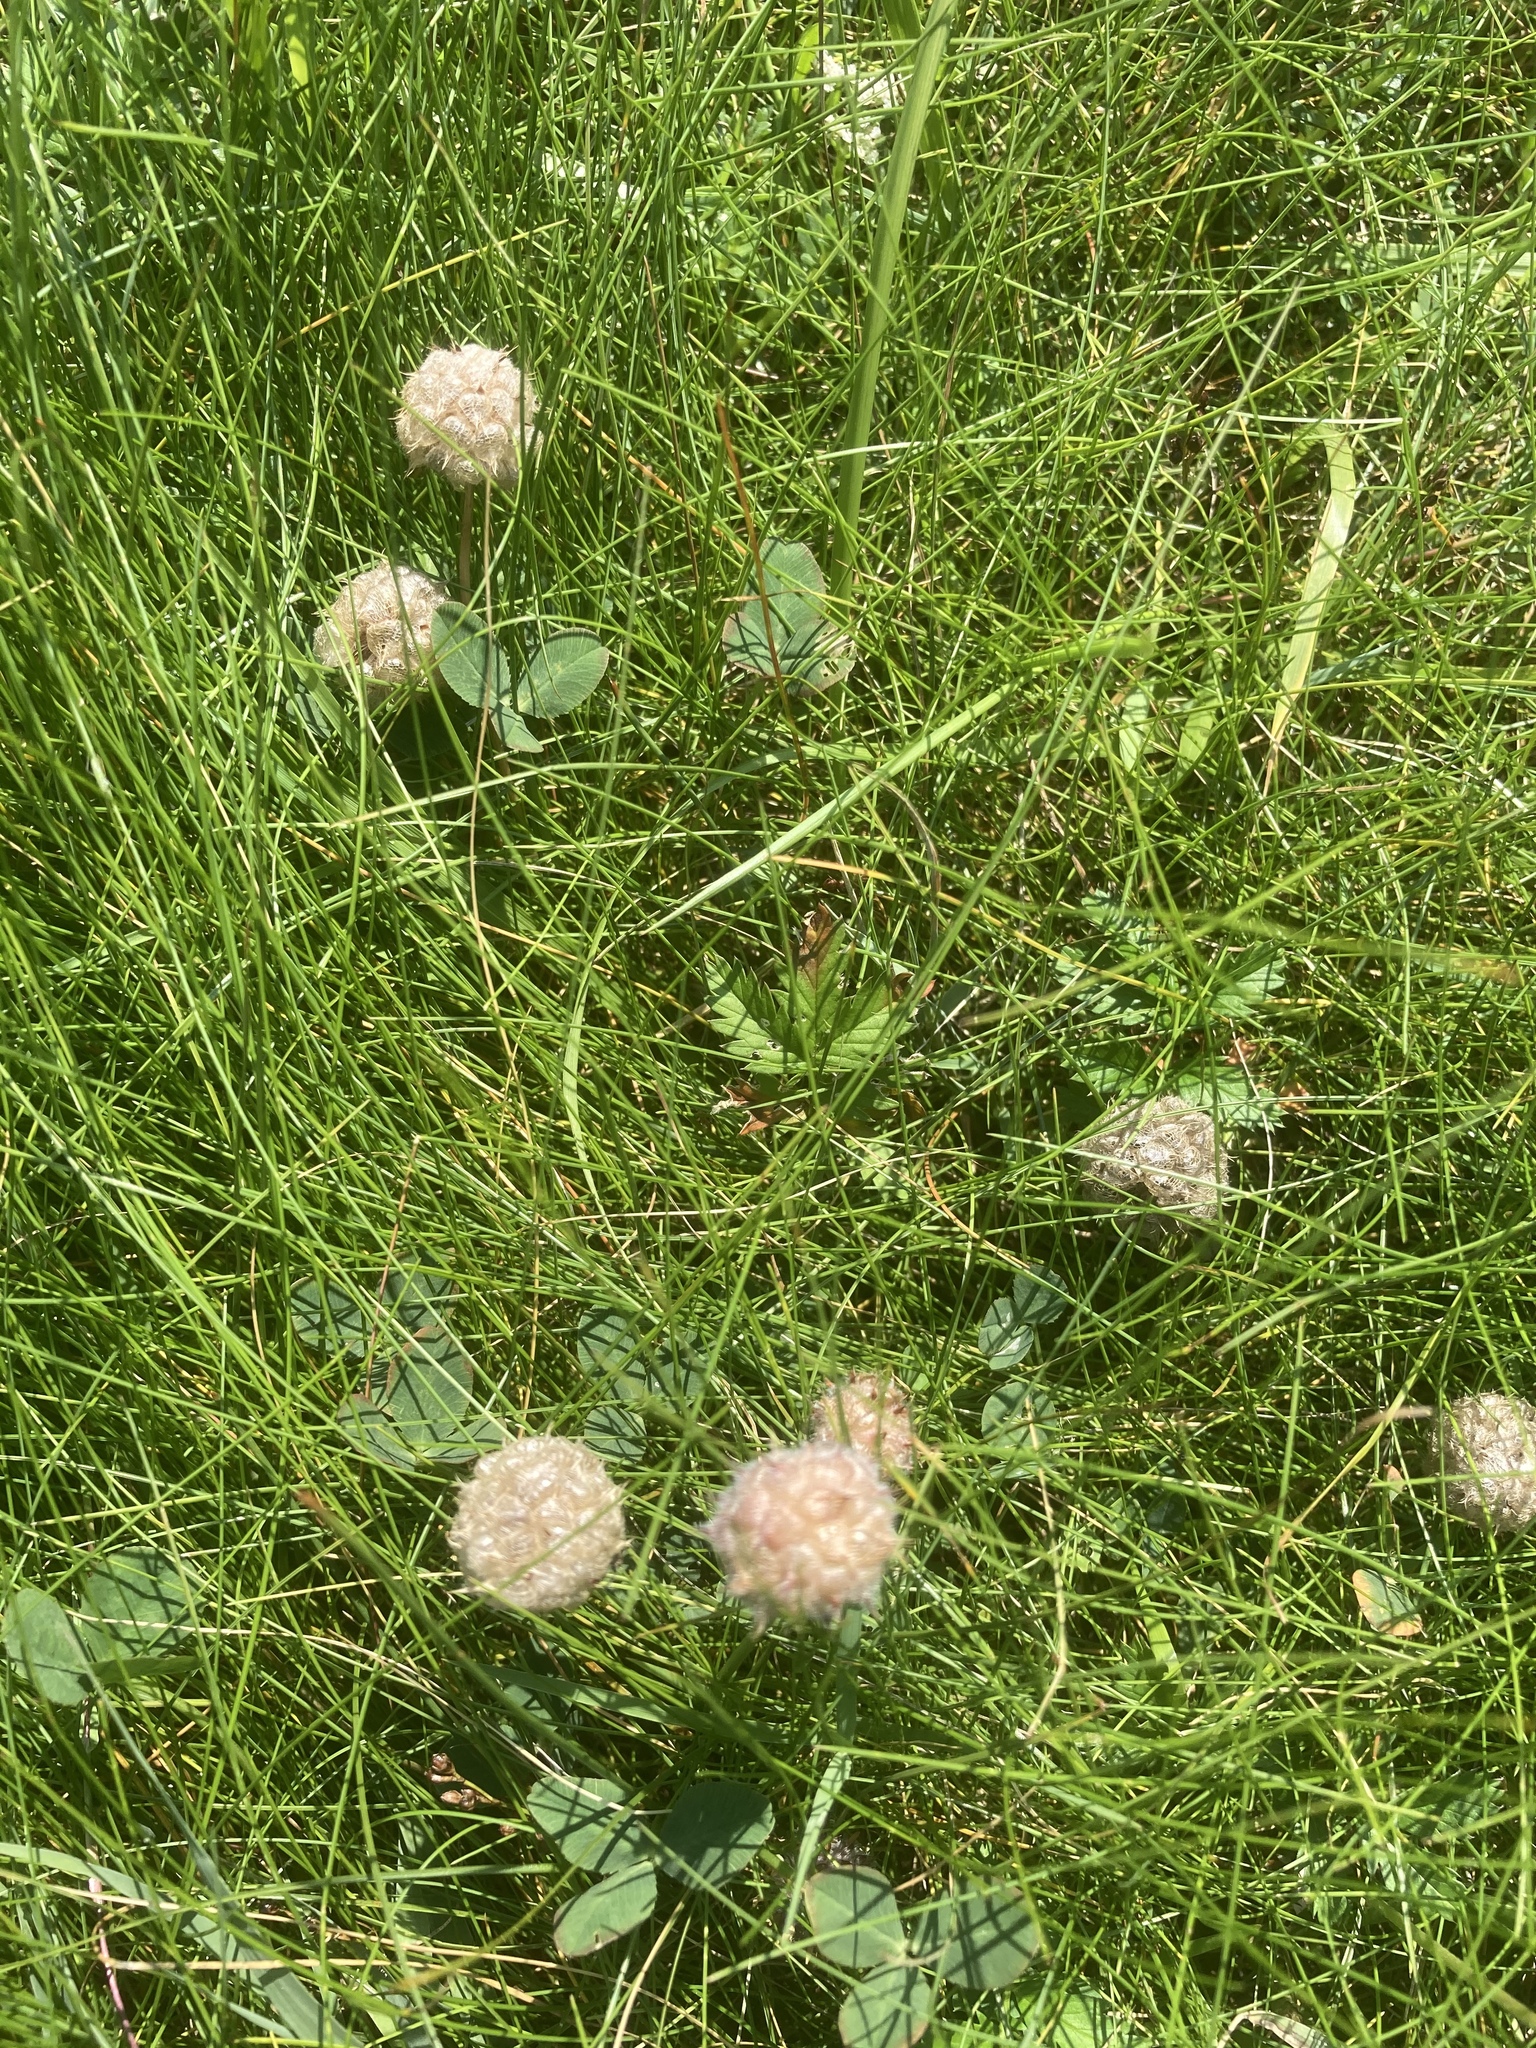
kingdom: Plantae
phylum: Tracheophyta
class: Magnoliopsida
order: Fabales
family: Fabaceae
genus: Trifolium
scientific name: Trifolium fragiferum
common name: Strawberry clover
